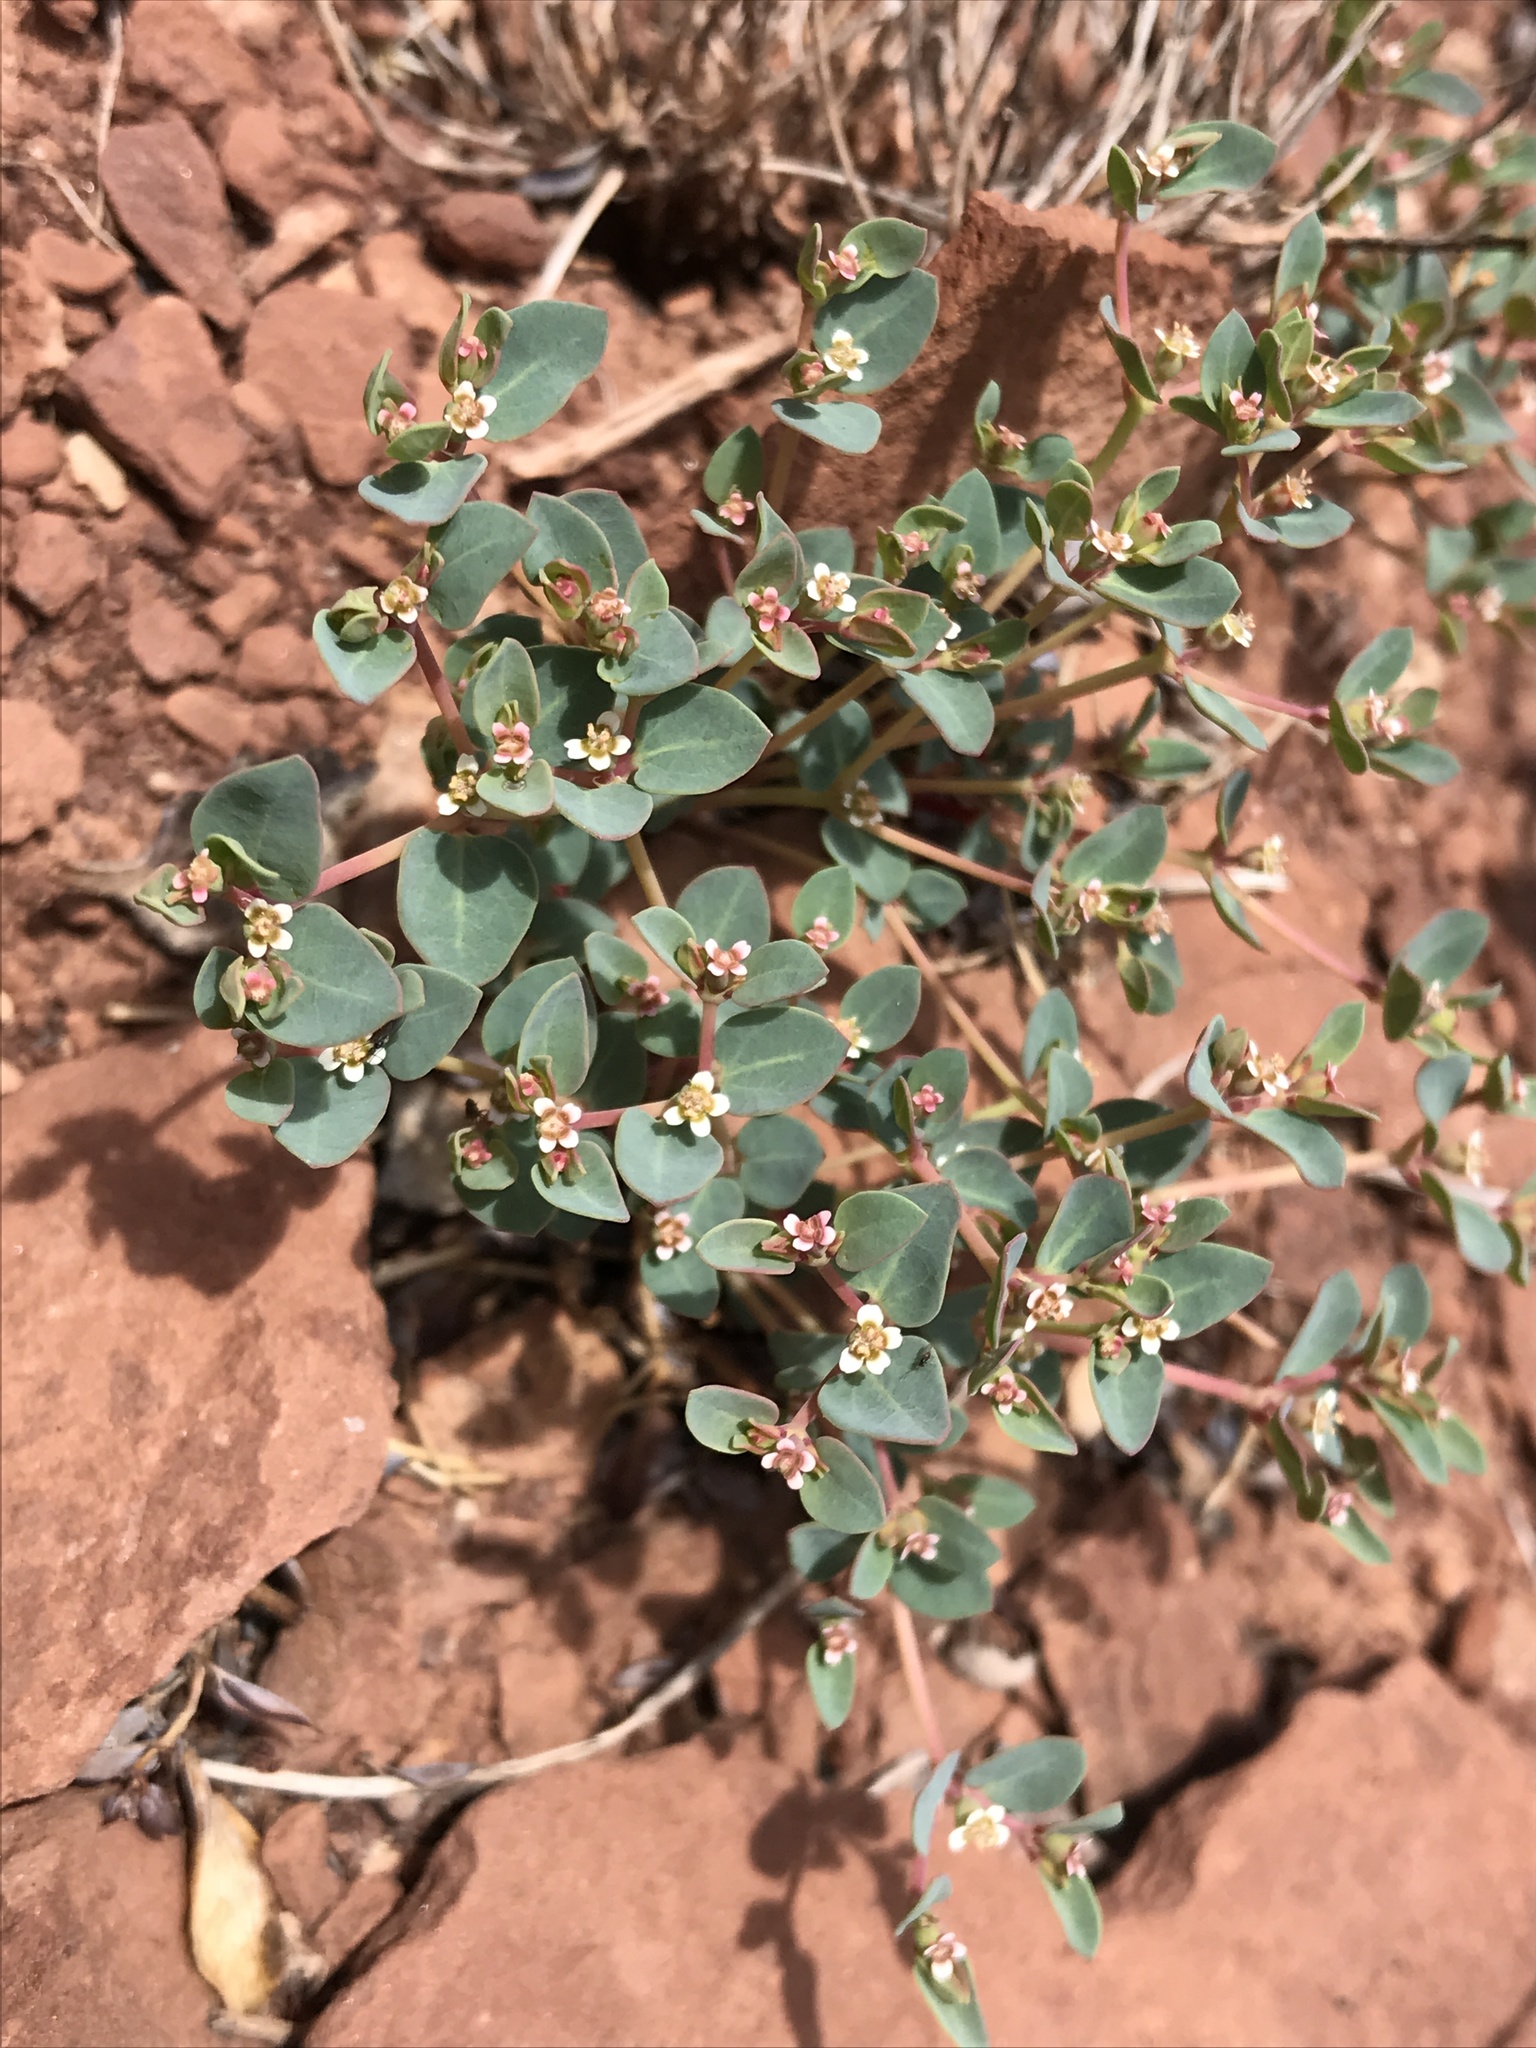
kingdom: Plantae
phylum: Tracheophyta
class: Magnoliopsida
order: Malpighiales
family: Euphorbiaceae
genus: Euphorbia
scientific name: Euphorbia fendleri
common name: Fendler's euphorbia
